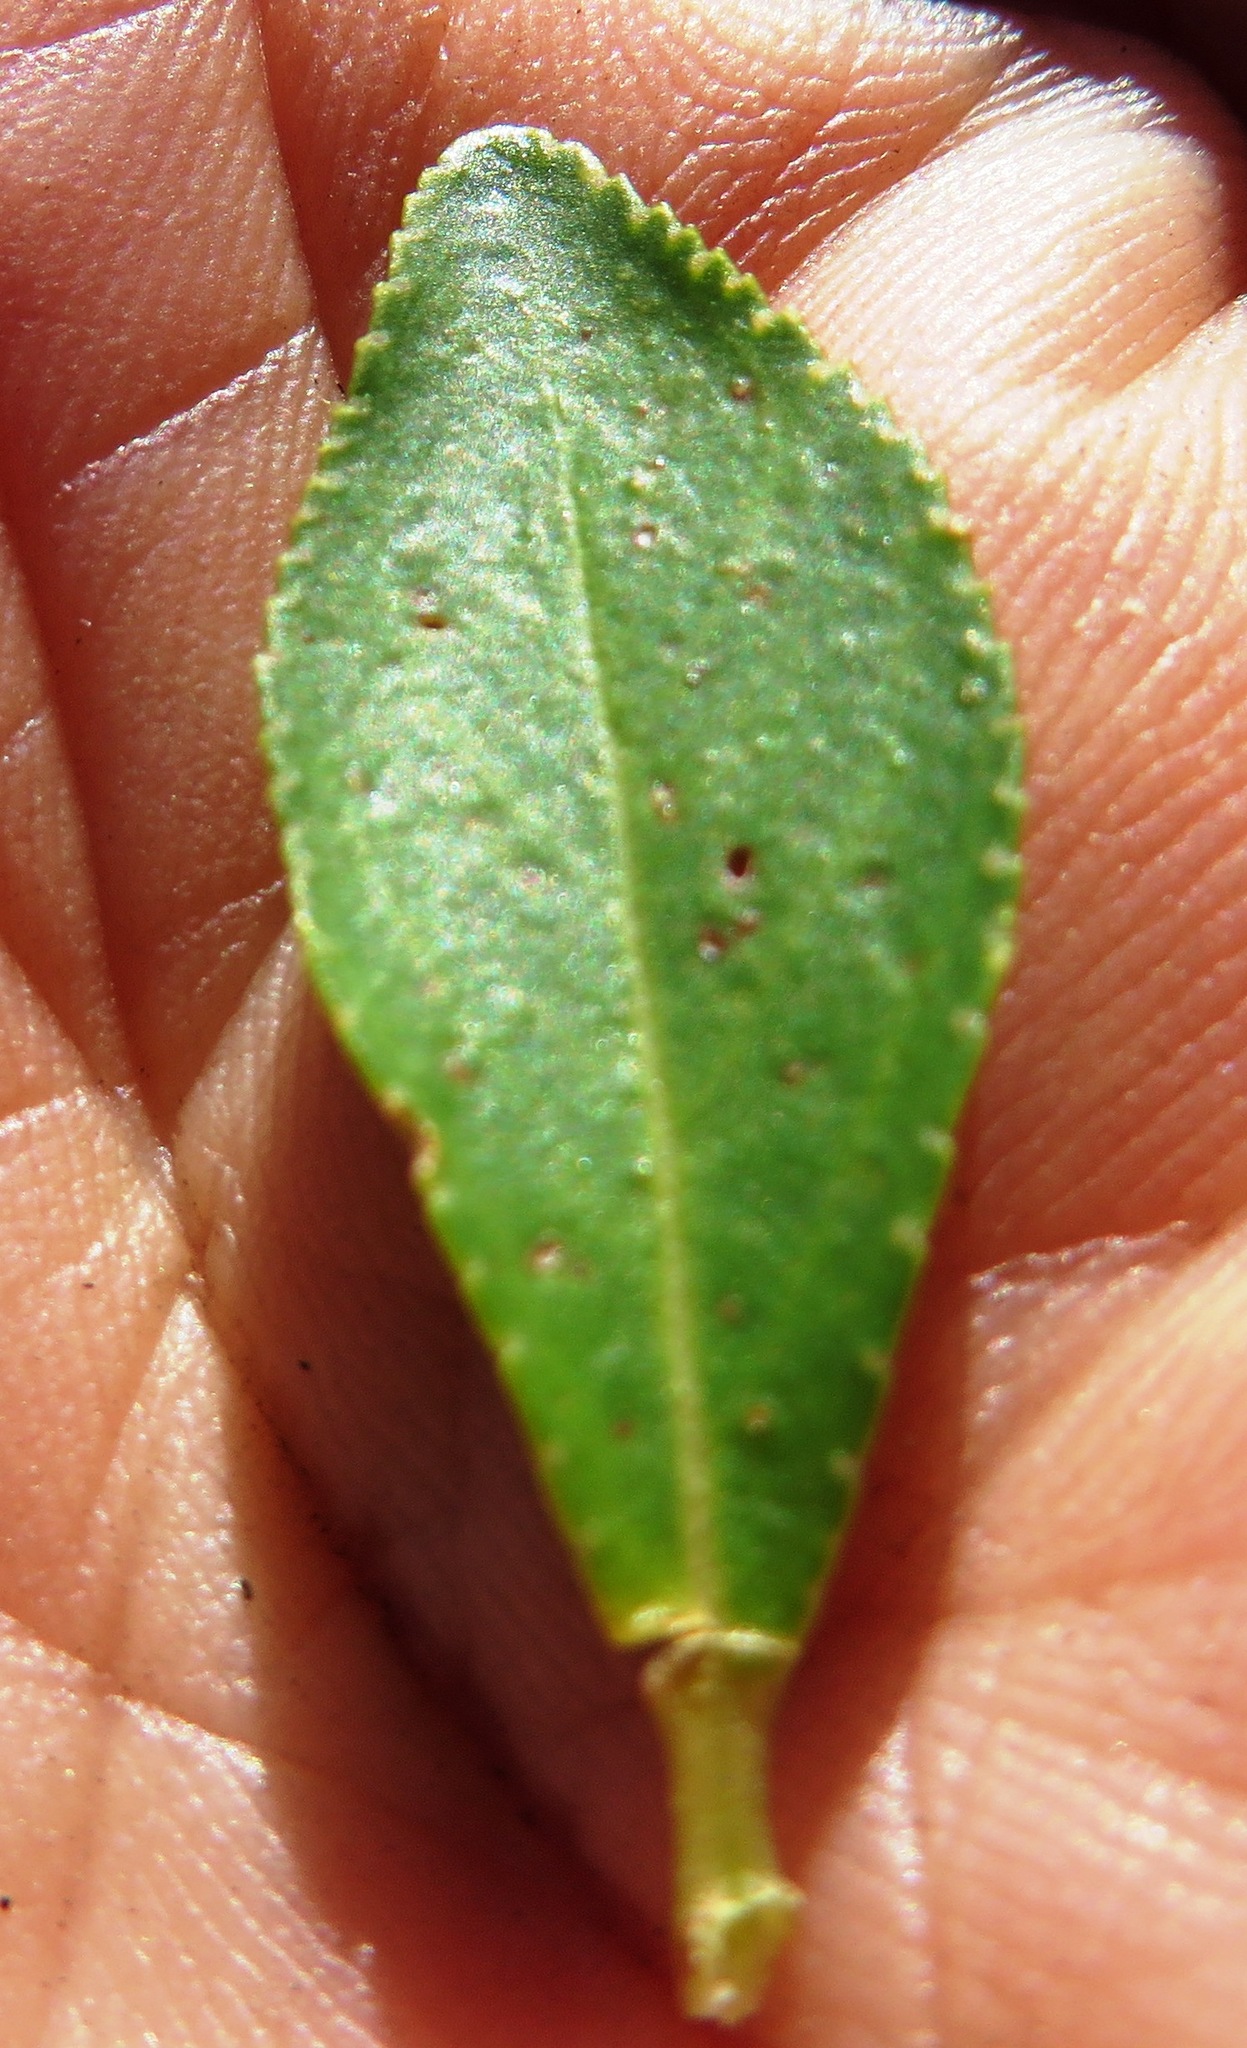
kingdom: Plantae
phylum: Tracheophyta
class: Magnoliopsida
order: Sapindales
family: Rutaceae
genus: Agathosma
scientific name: Agathosma crenulata
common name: Oval buchu
